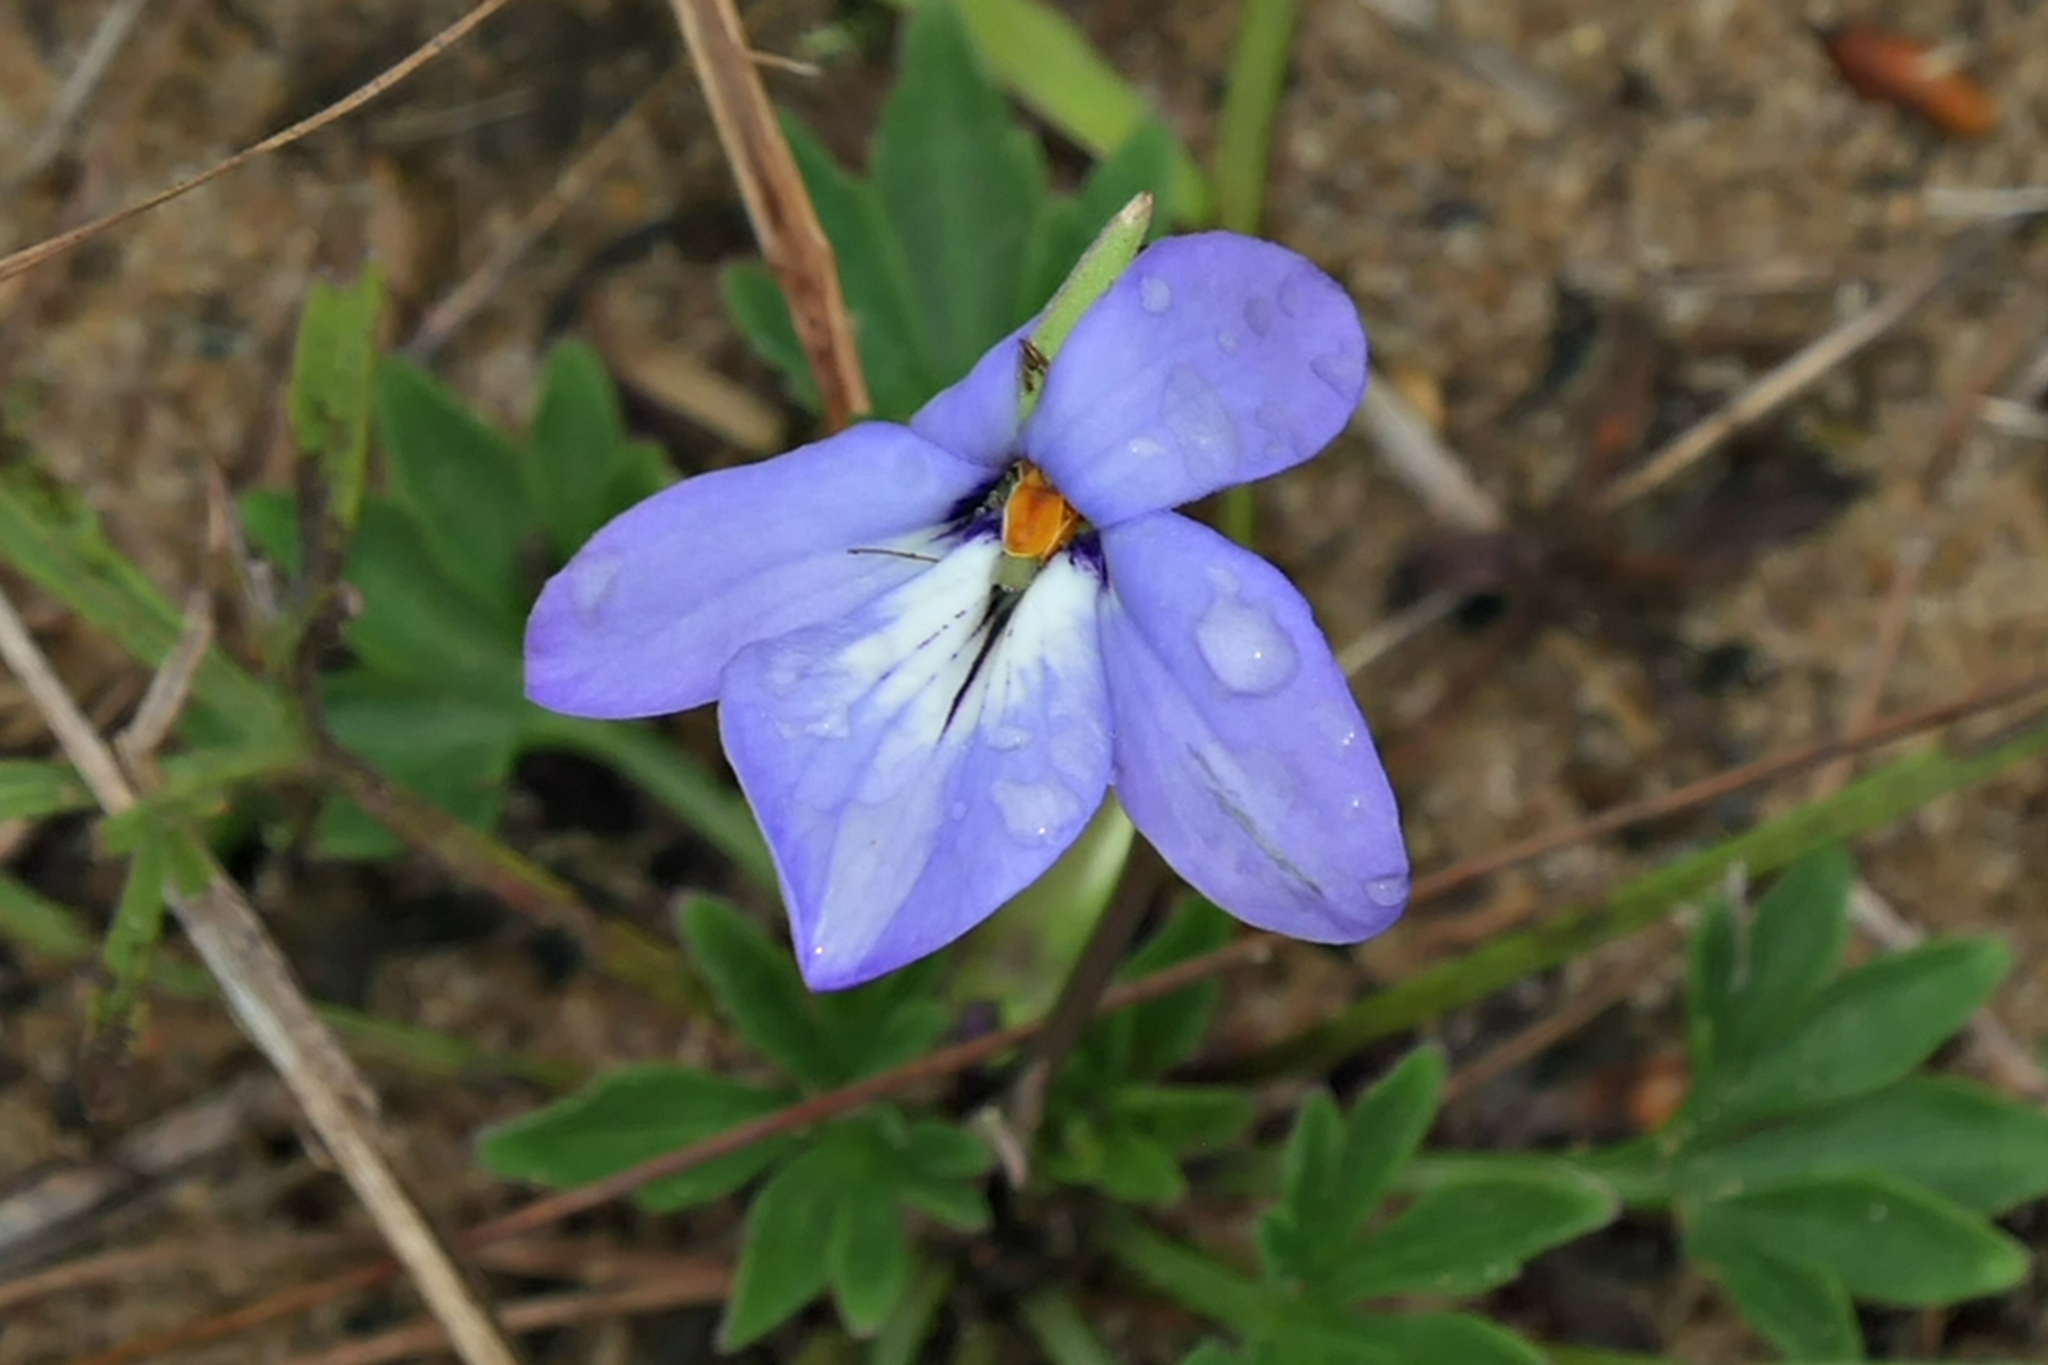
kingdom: Plantae
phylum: Tracheophyta
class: Magnoliopsida
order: Malpighiales
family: Violaceae
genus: Viola
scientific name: Viola pedata
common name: Pansy violet
